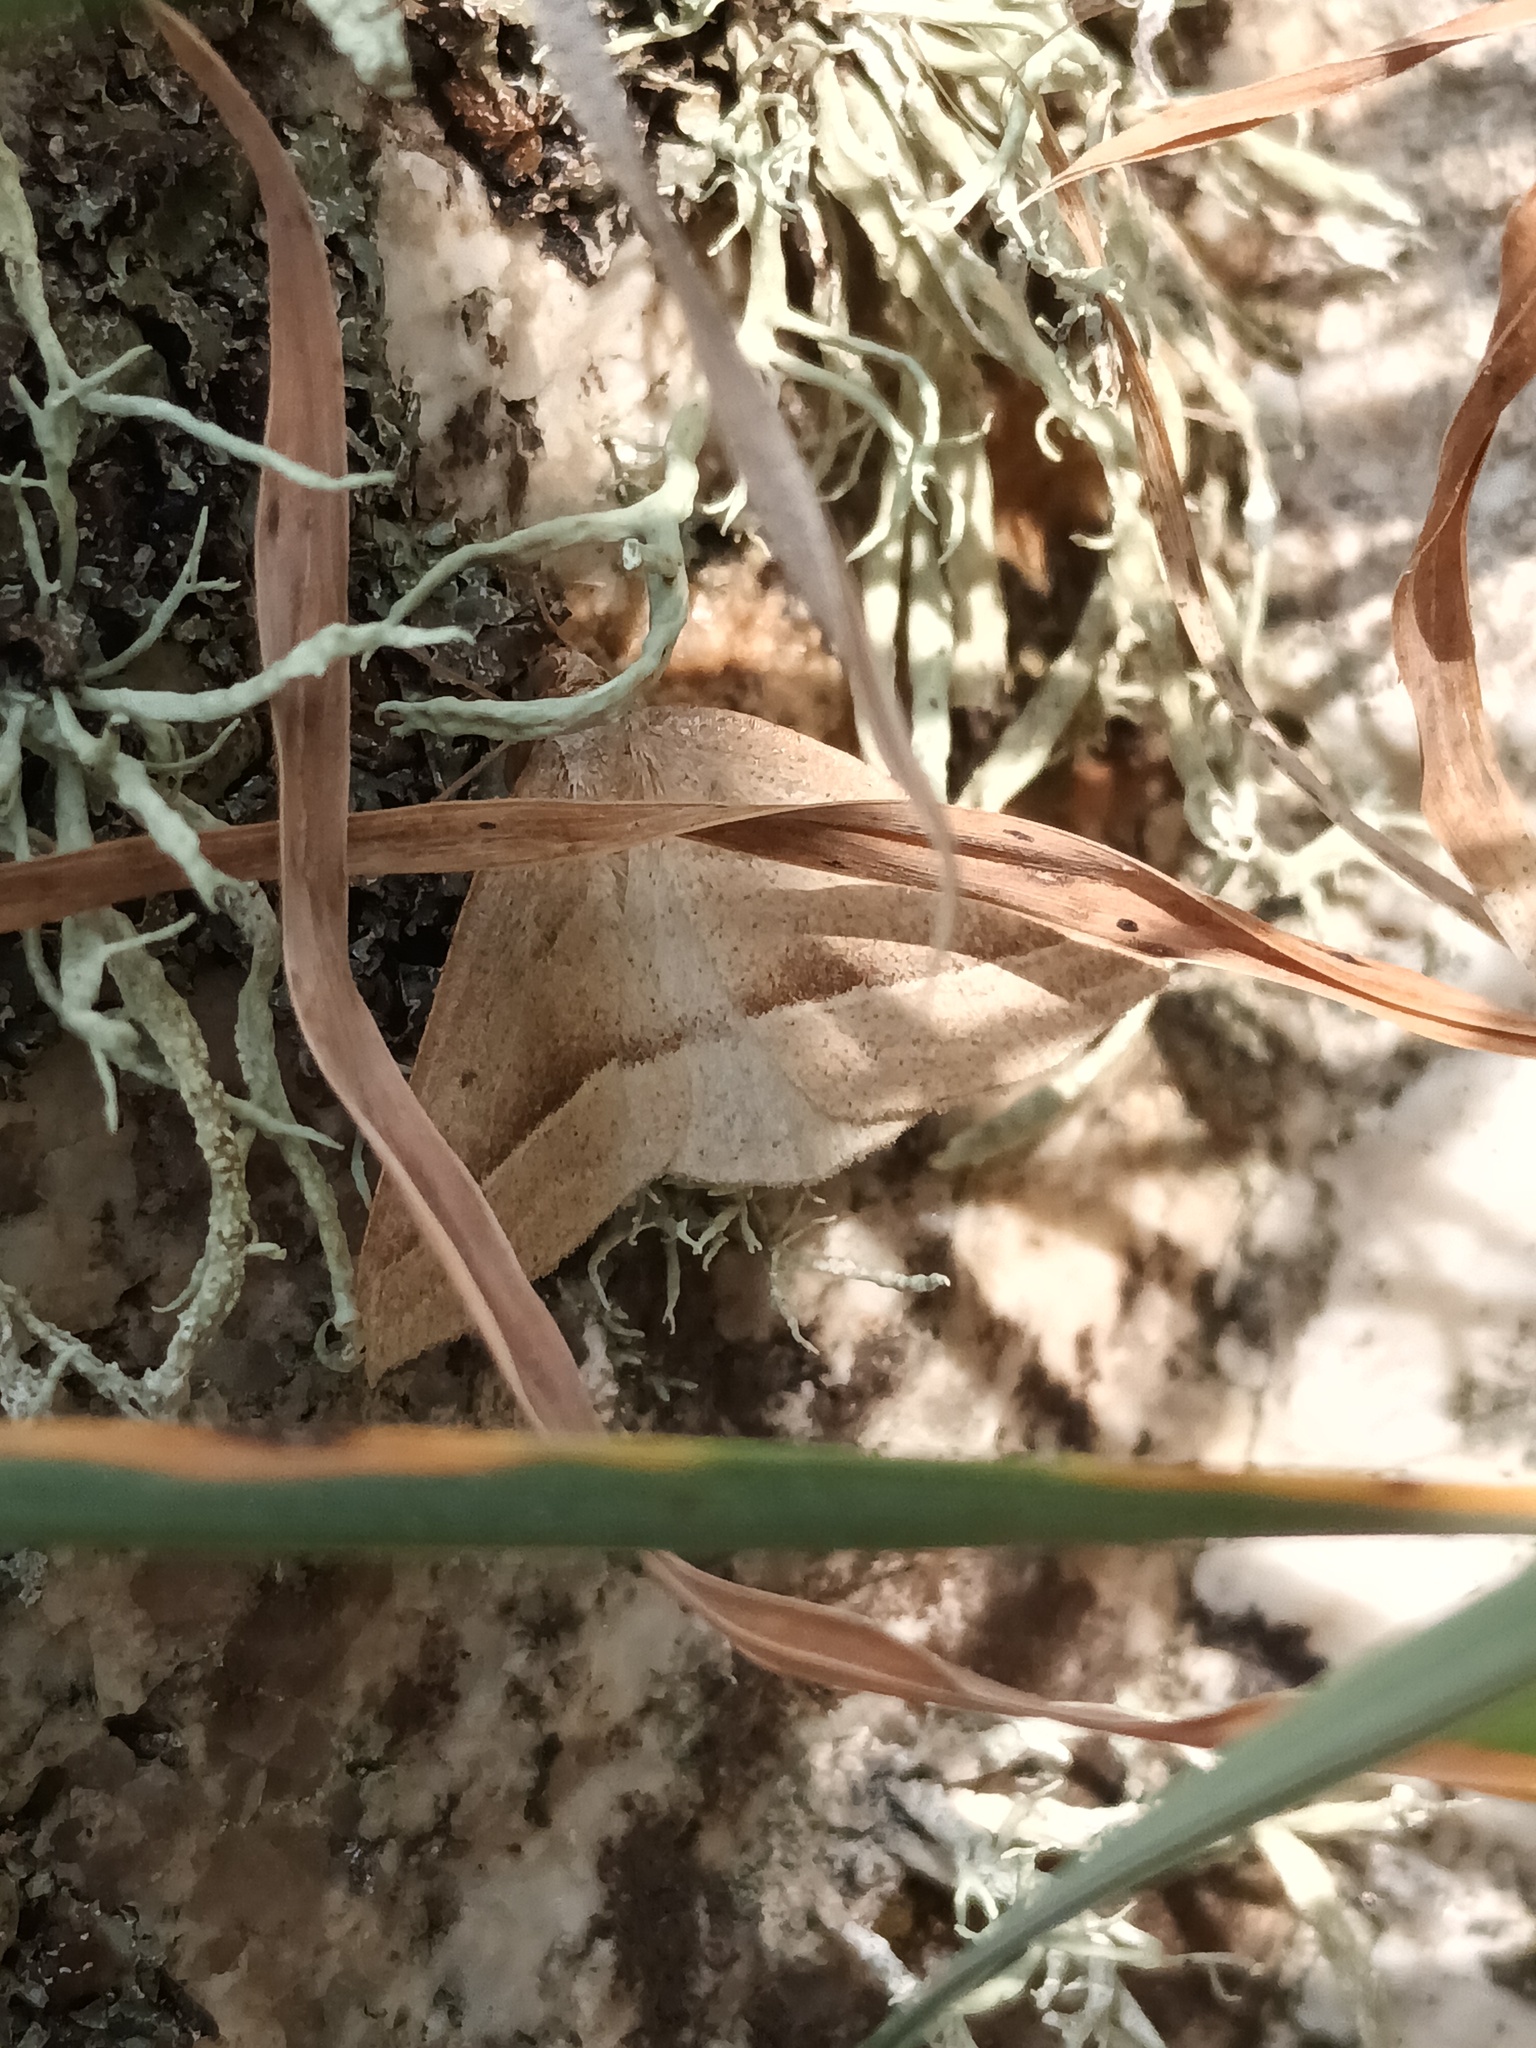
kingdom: Animalia
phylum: Arthropoda
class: Insecta
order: Lepidoptera
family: Pterophoridae
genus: Pterophorus
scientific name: Pterophorus Petrophora chlorosata
